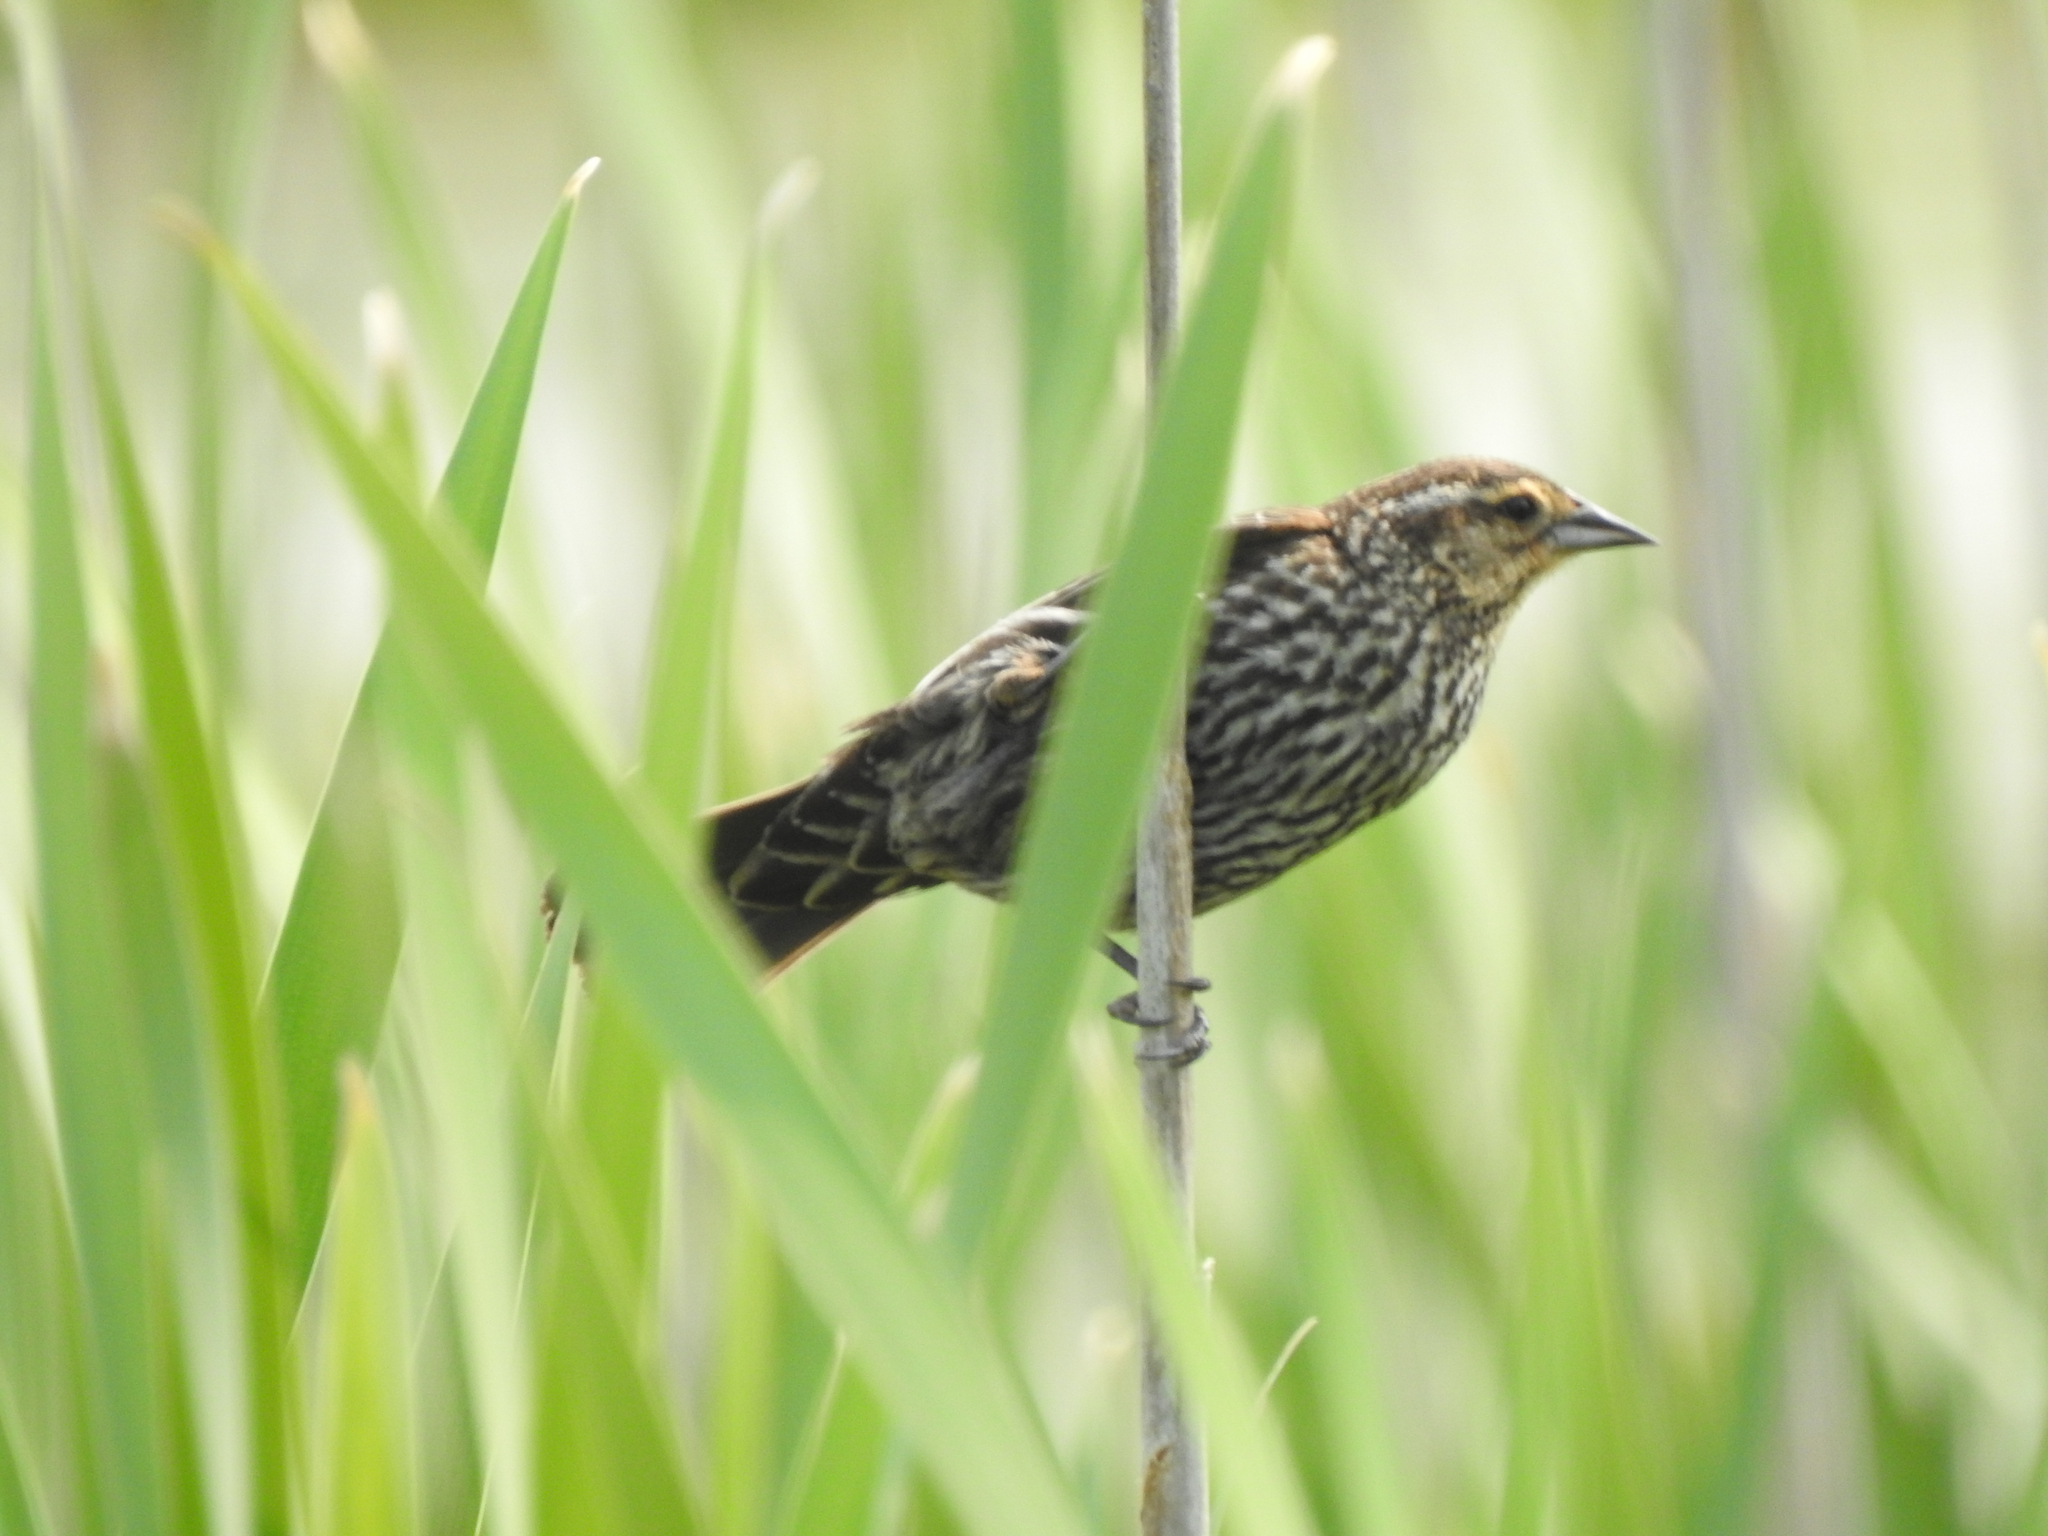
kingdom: Animalia
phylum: Chordata
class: Aves
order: Passeriformes
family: Icteridae
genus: Agelaius
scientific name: Agelaius phoeniceus
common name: Red-winged blackbird
